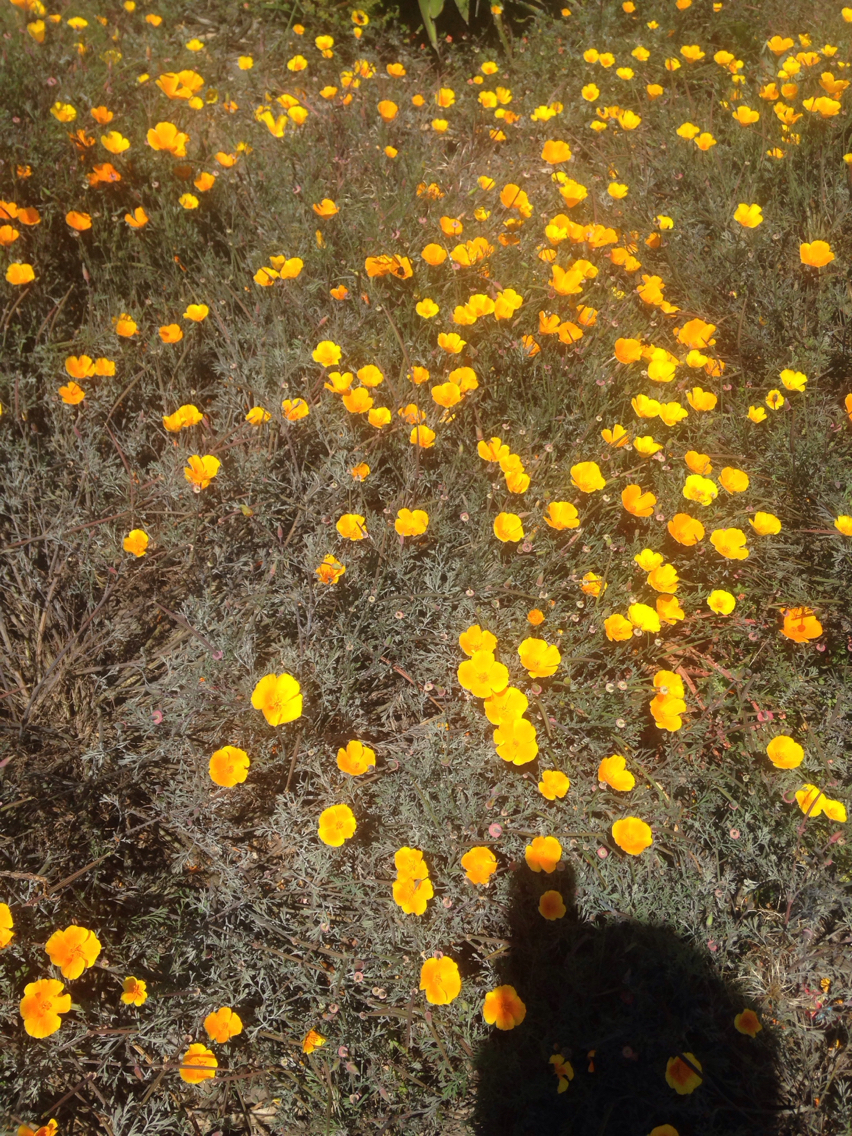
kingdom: Plantae
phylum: Tracheophyta
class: Magnoliopsida
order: Ranunculales
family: Papaveraceae
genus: Eschscholzia
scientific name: Eschscholzia californica
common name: California poppy
